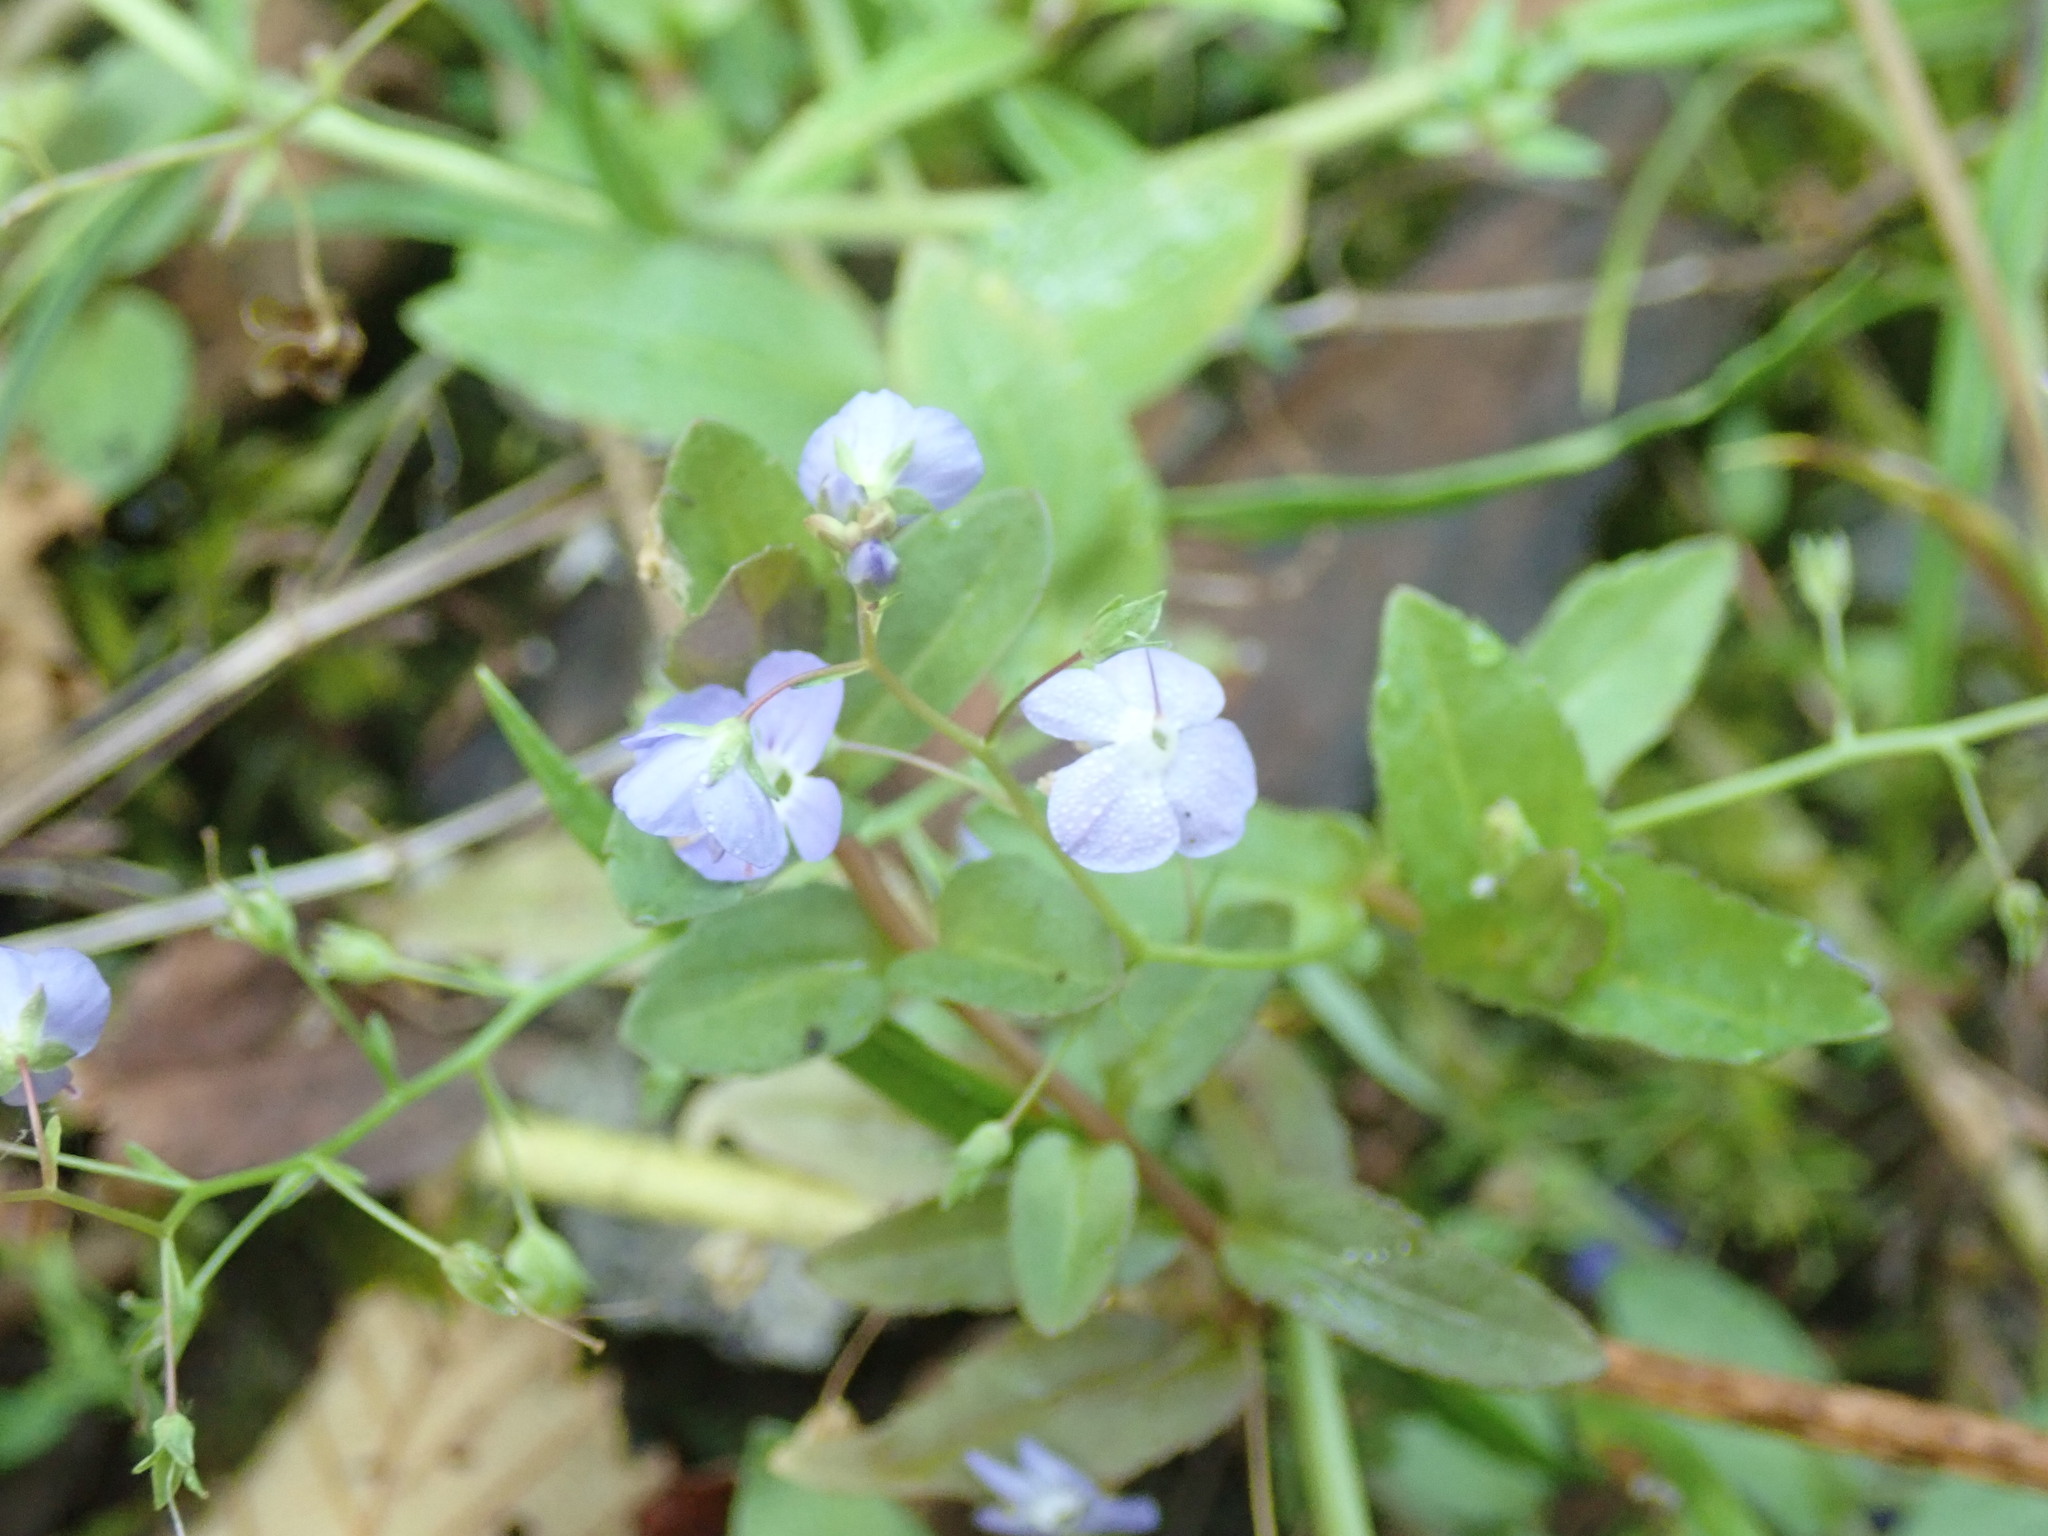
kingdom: Plantae
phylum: Tracheophyta
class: Magnoliopsida
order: Lamiales
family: Plantaginaceae
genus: Veronica
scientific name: Veronica americana
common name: American brooklime
